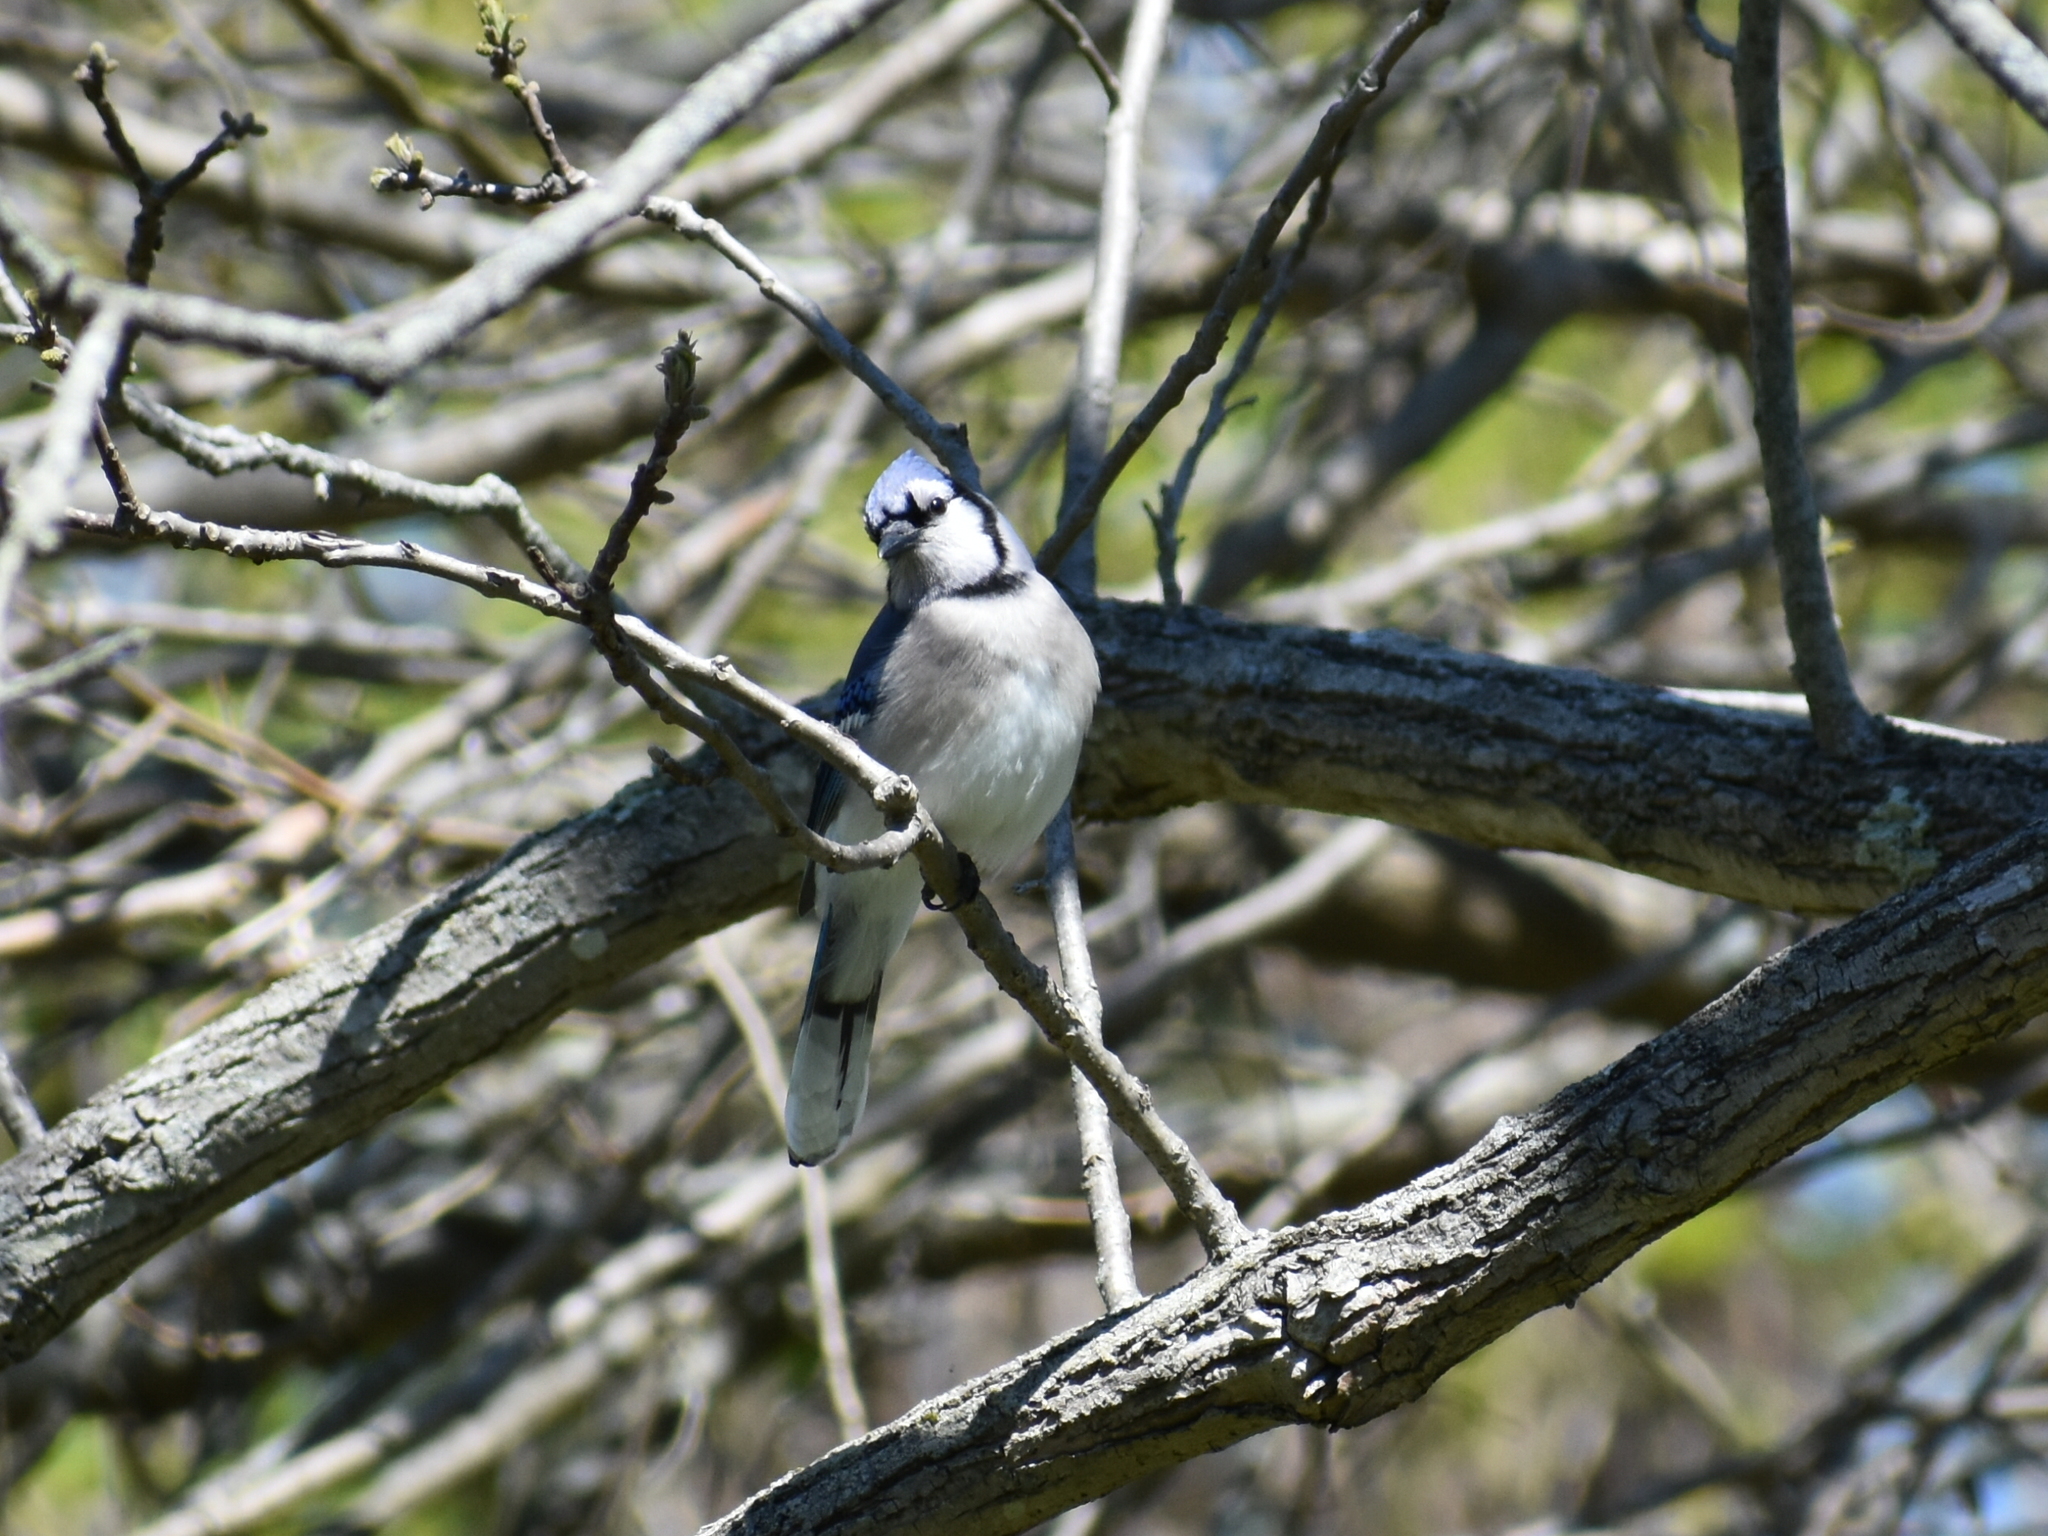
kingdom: Animalia
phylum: Chordata
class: Aves
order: Passeriformes
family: Corvidae
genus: Cyanocitta
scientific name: Cyanocitta cristata
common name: Blue jay
